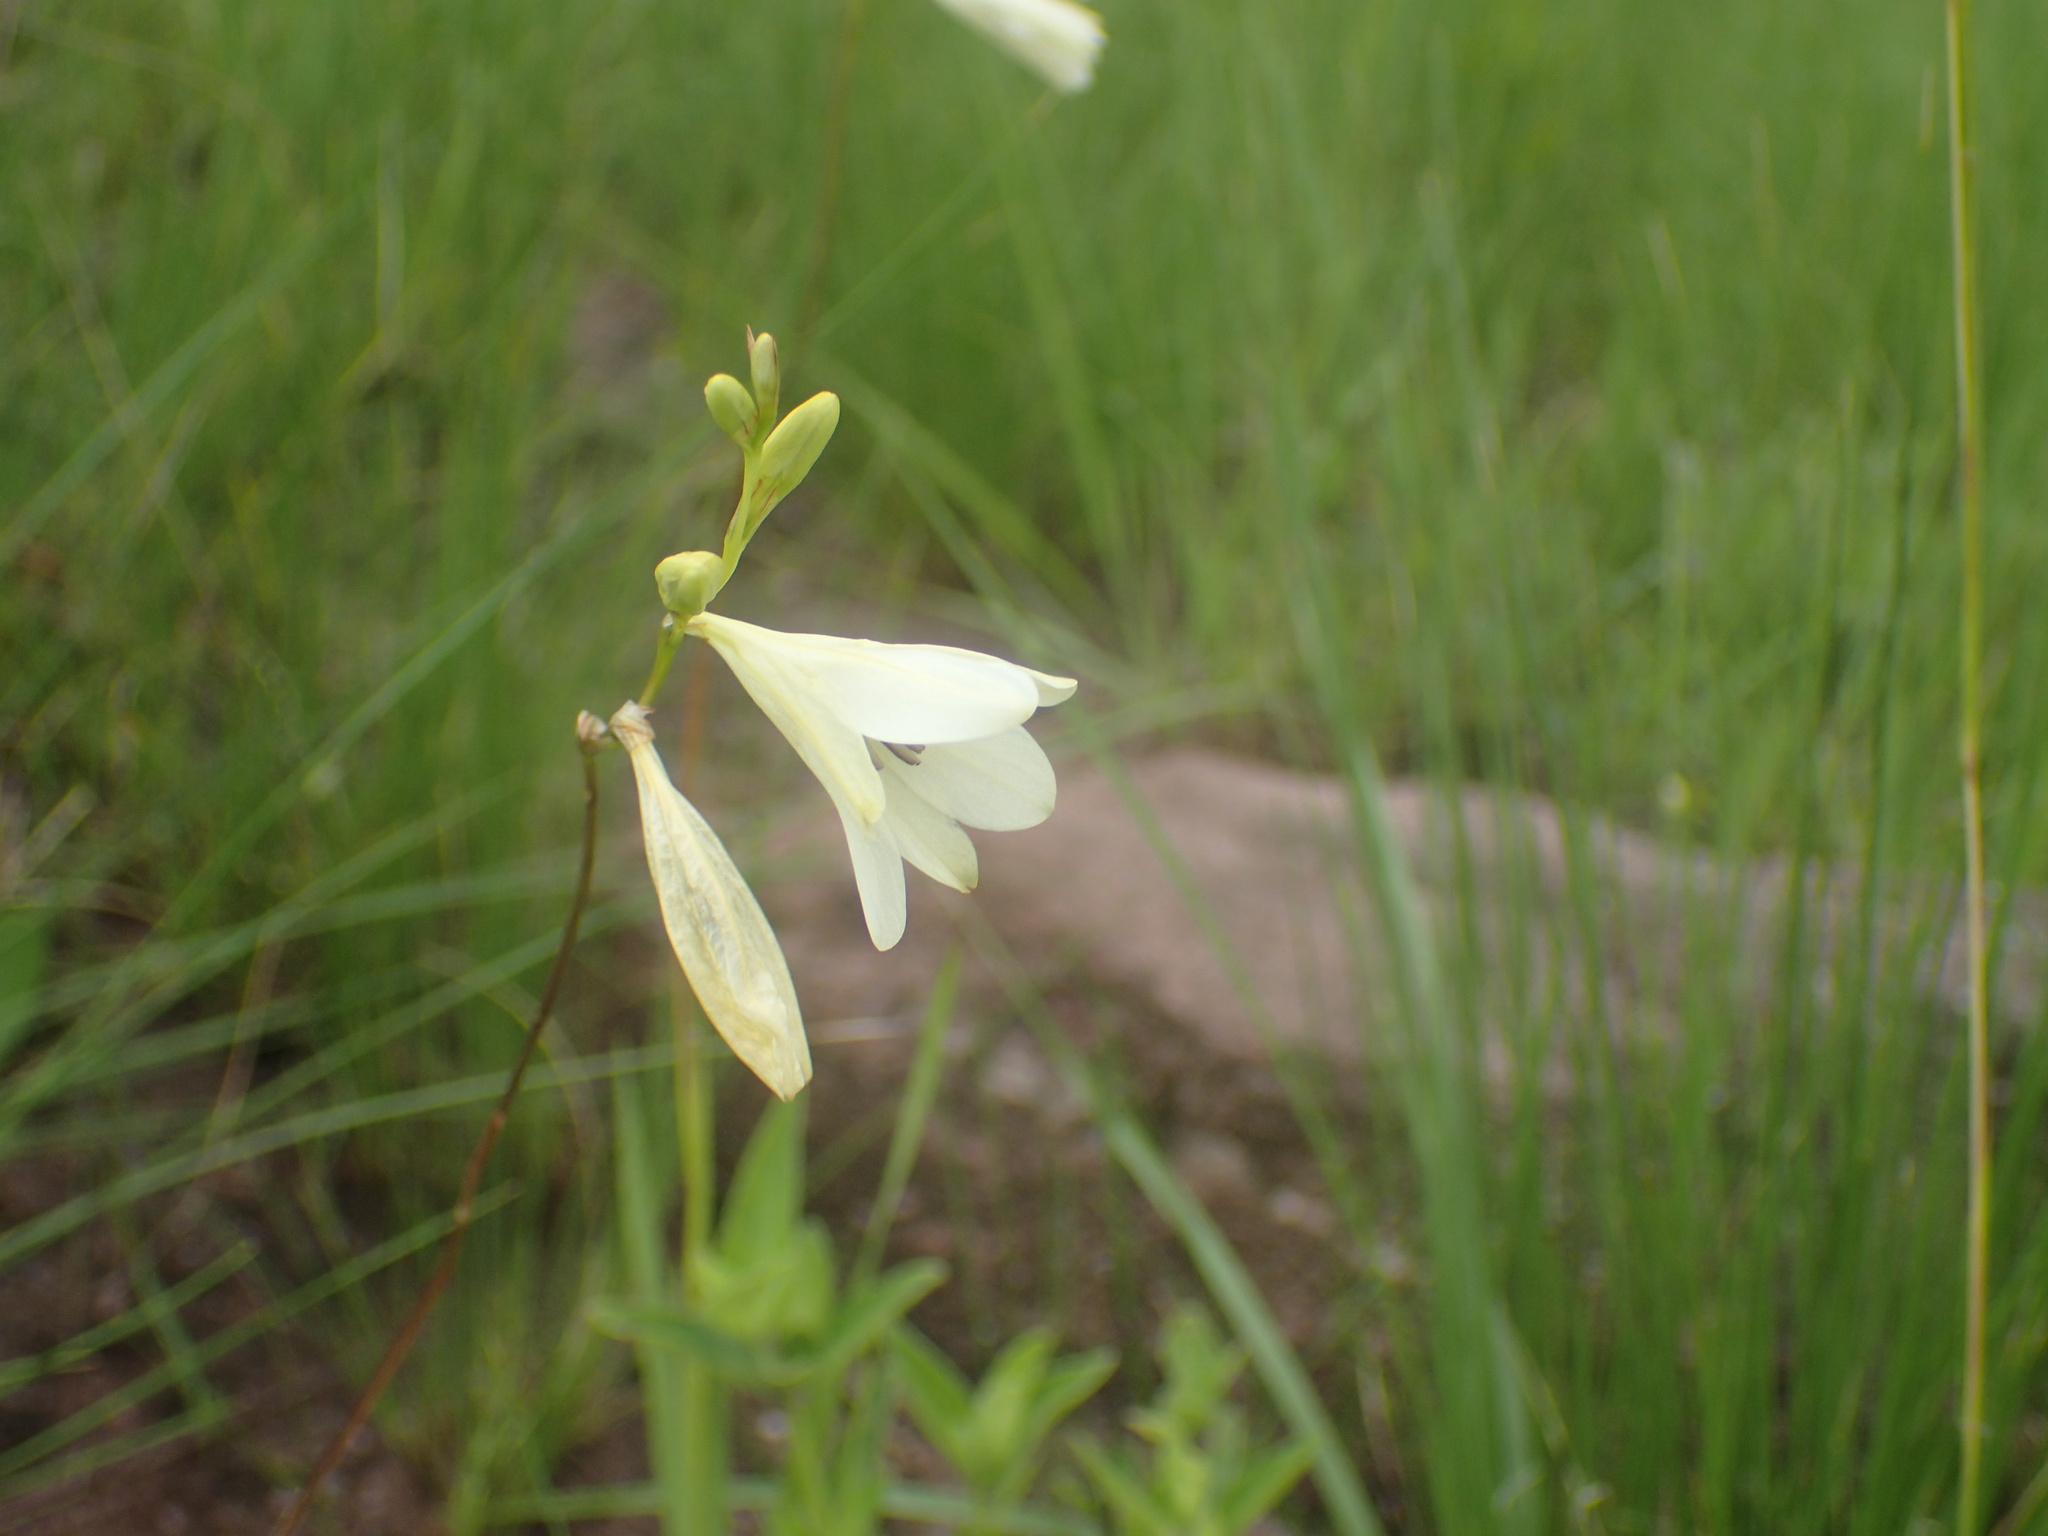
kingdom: Plantae
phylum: Tracheophyta
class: Liliopsida
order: Asparagales
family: Iridaceae
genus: Tritonia
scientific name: Tritonia gladiolaris
